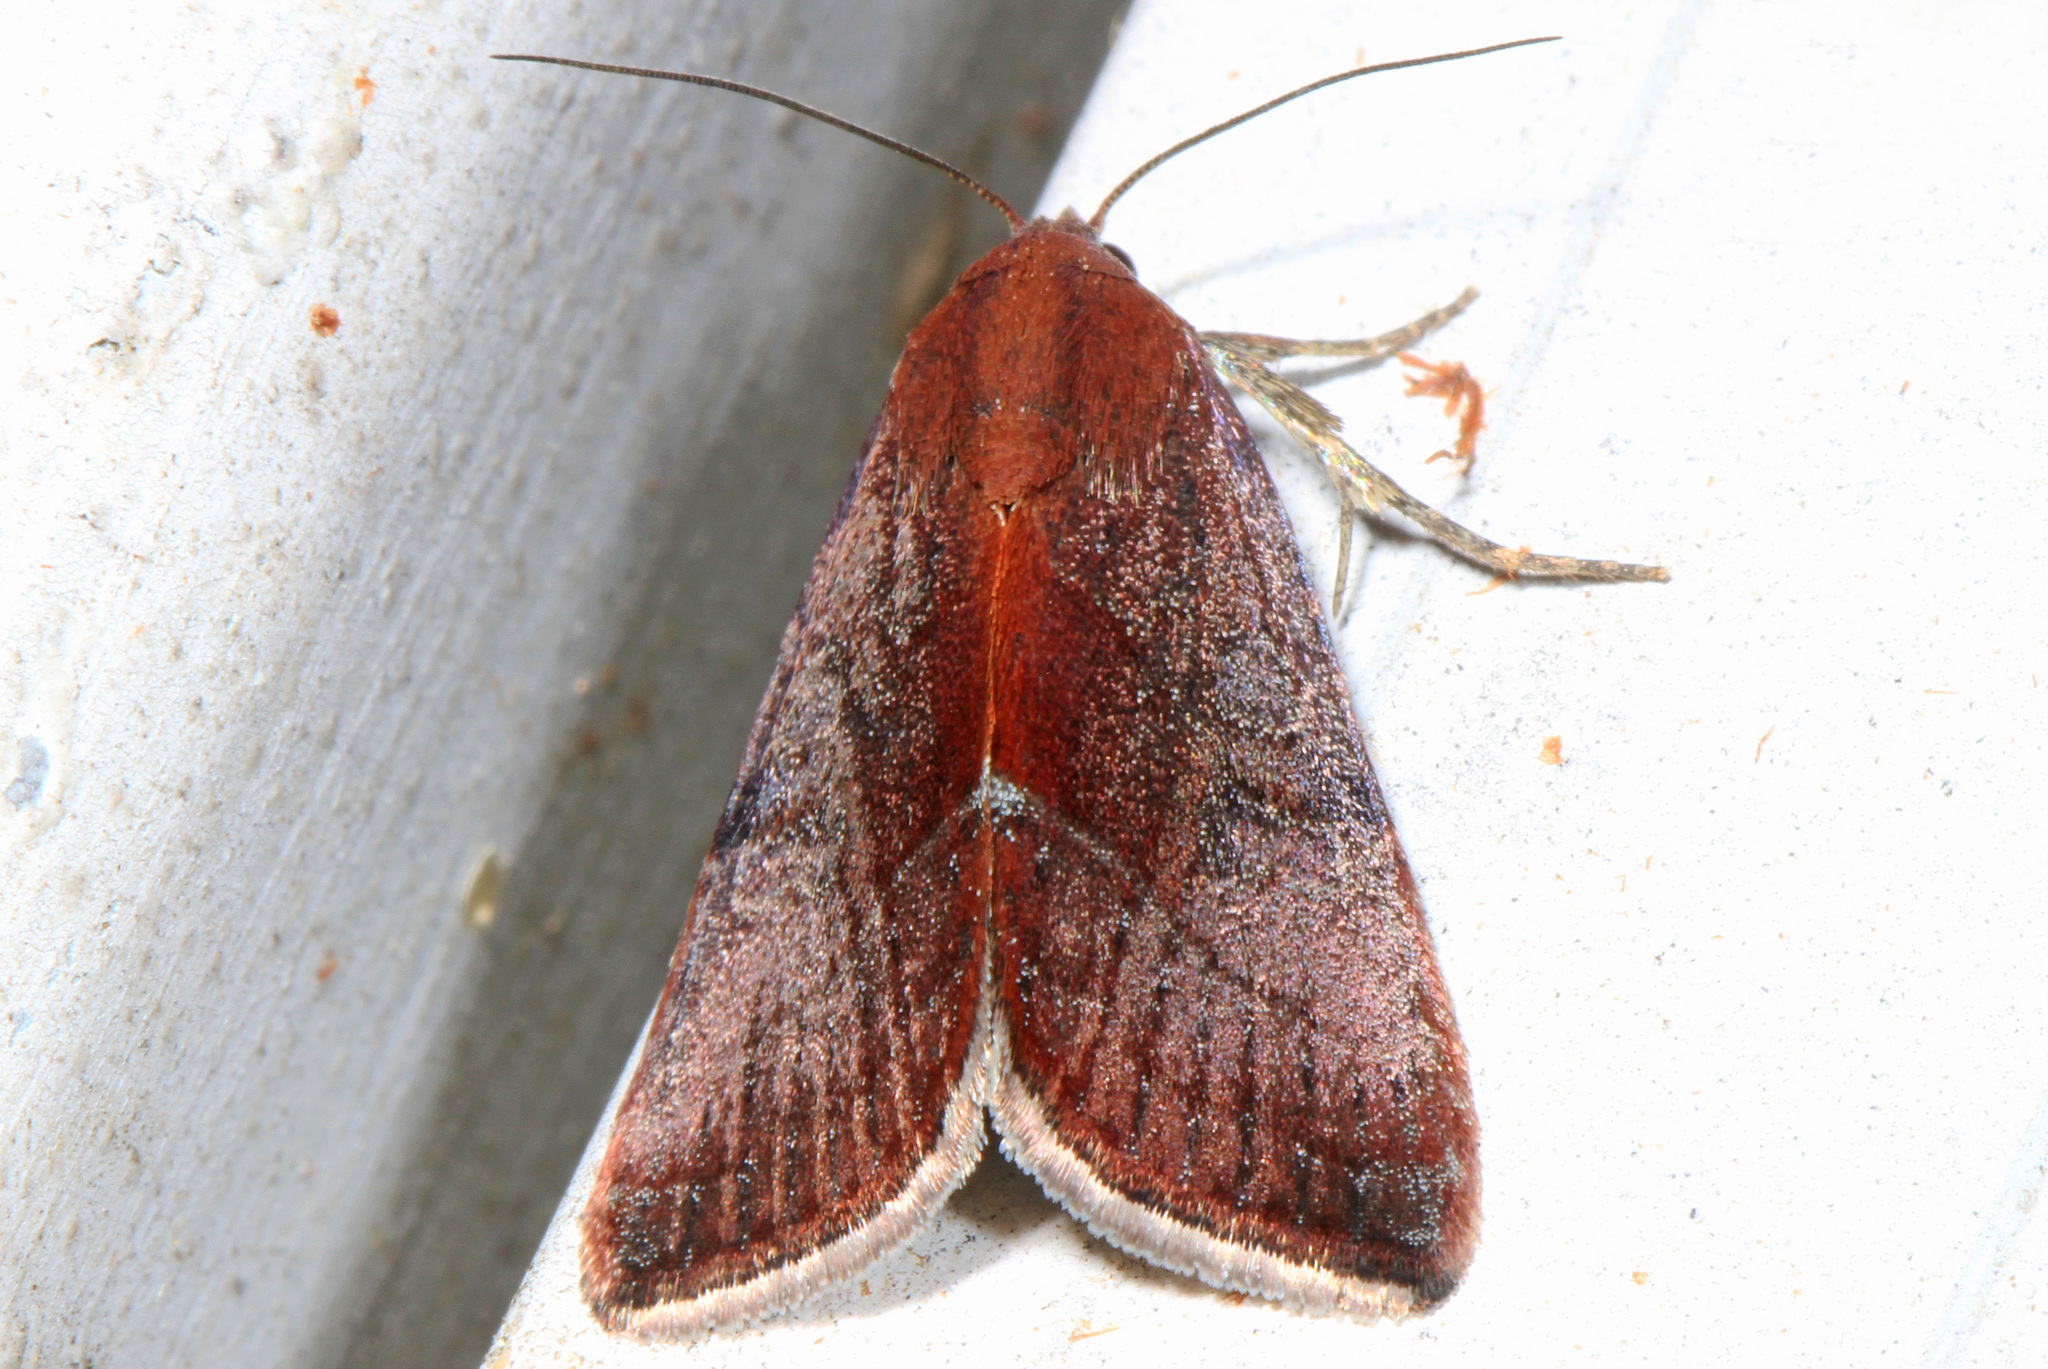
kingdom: Animalia
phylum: Arthropoda
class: Insecta
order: Lepidoptera
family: Noctuidae
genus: Galgula
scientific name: Galgula partita
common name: Wedgeling
